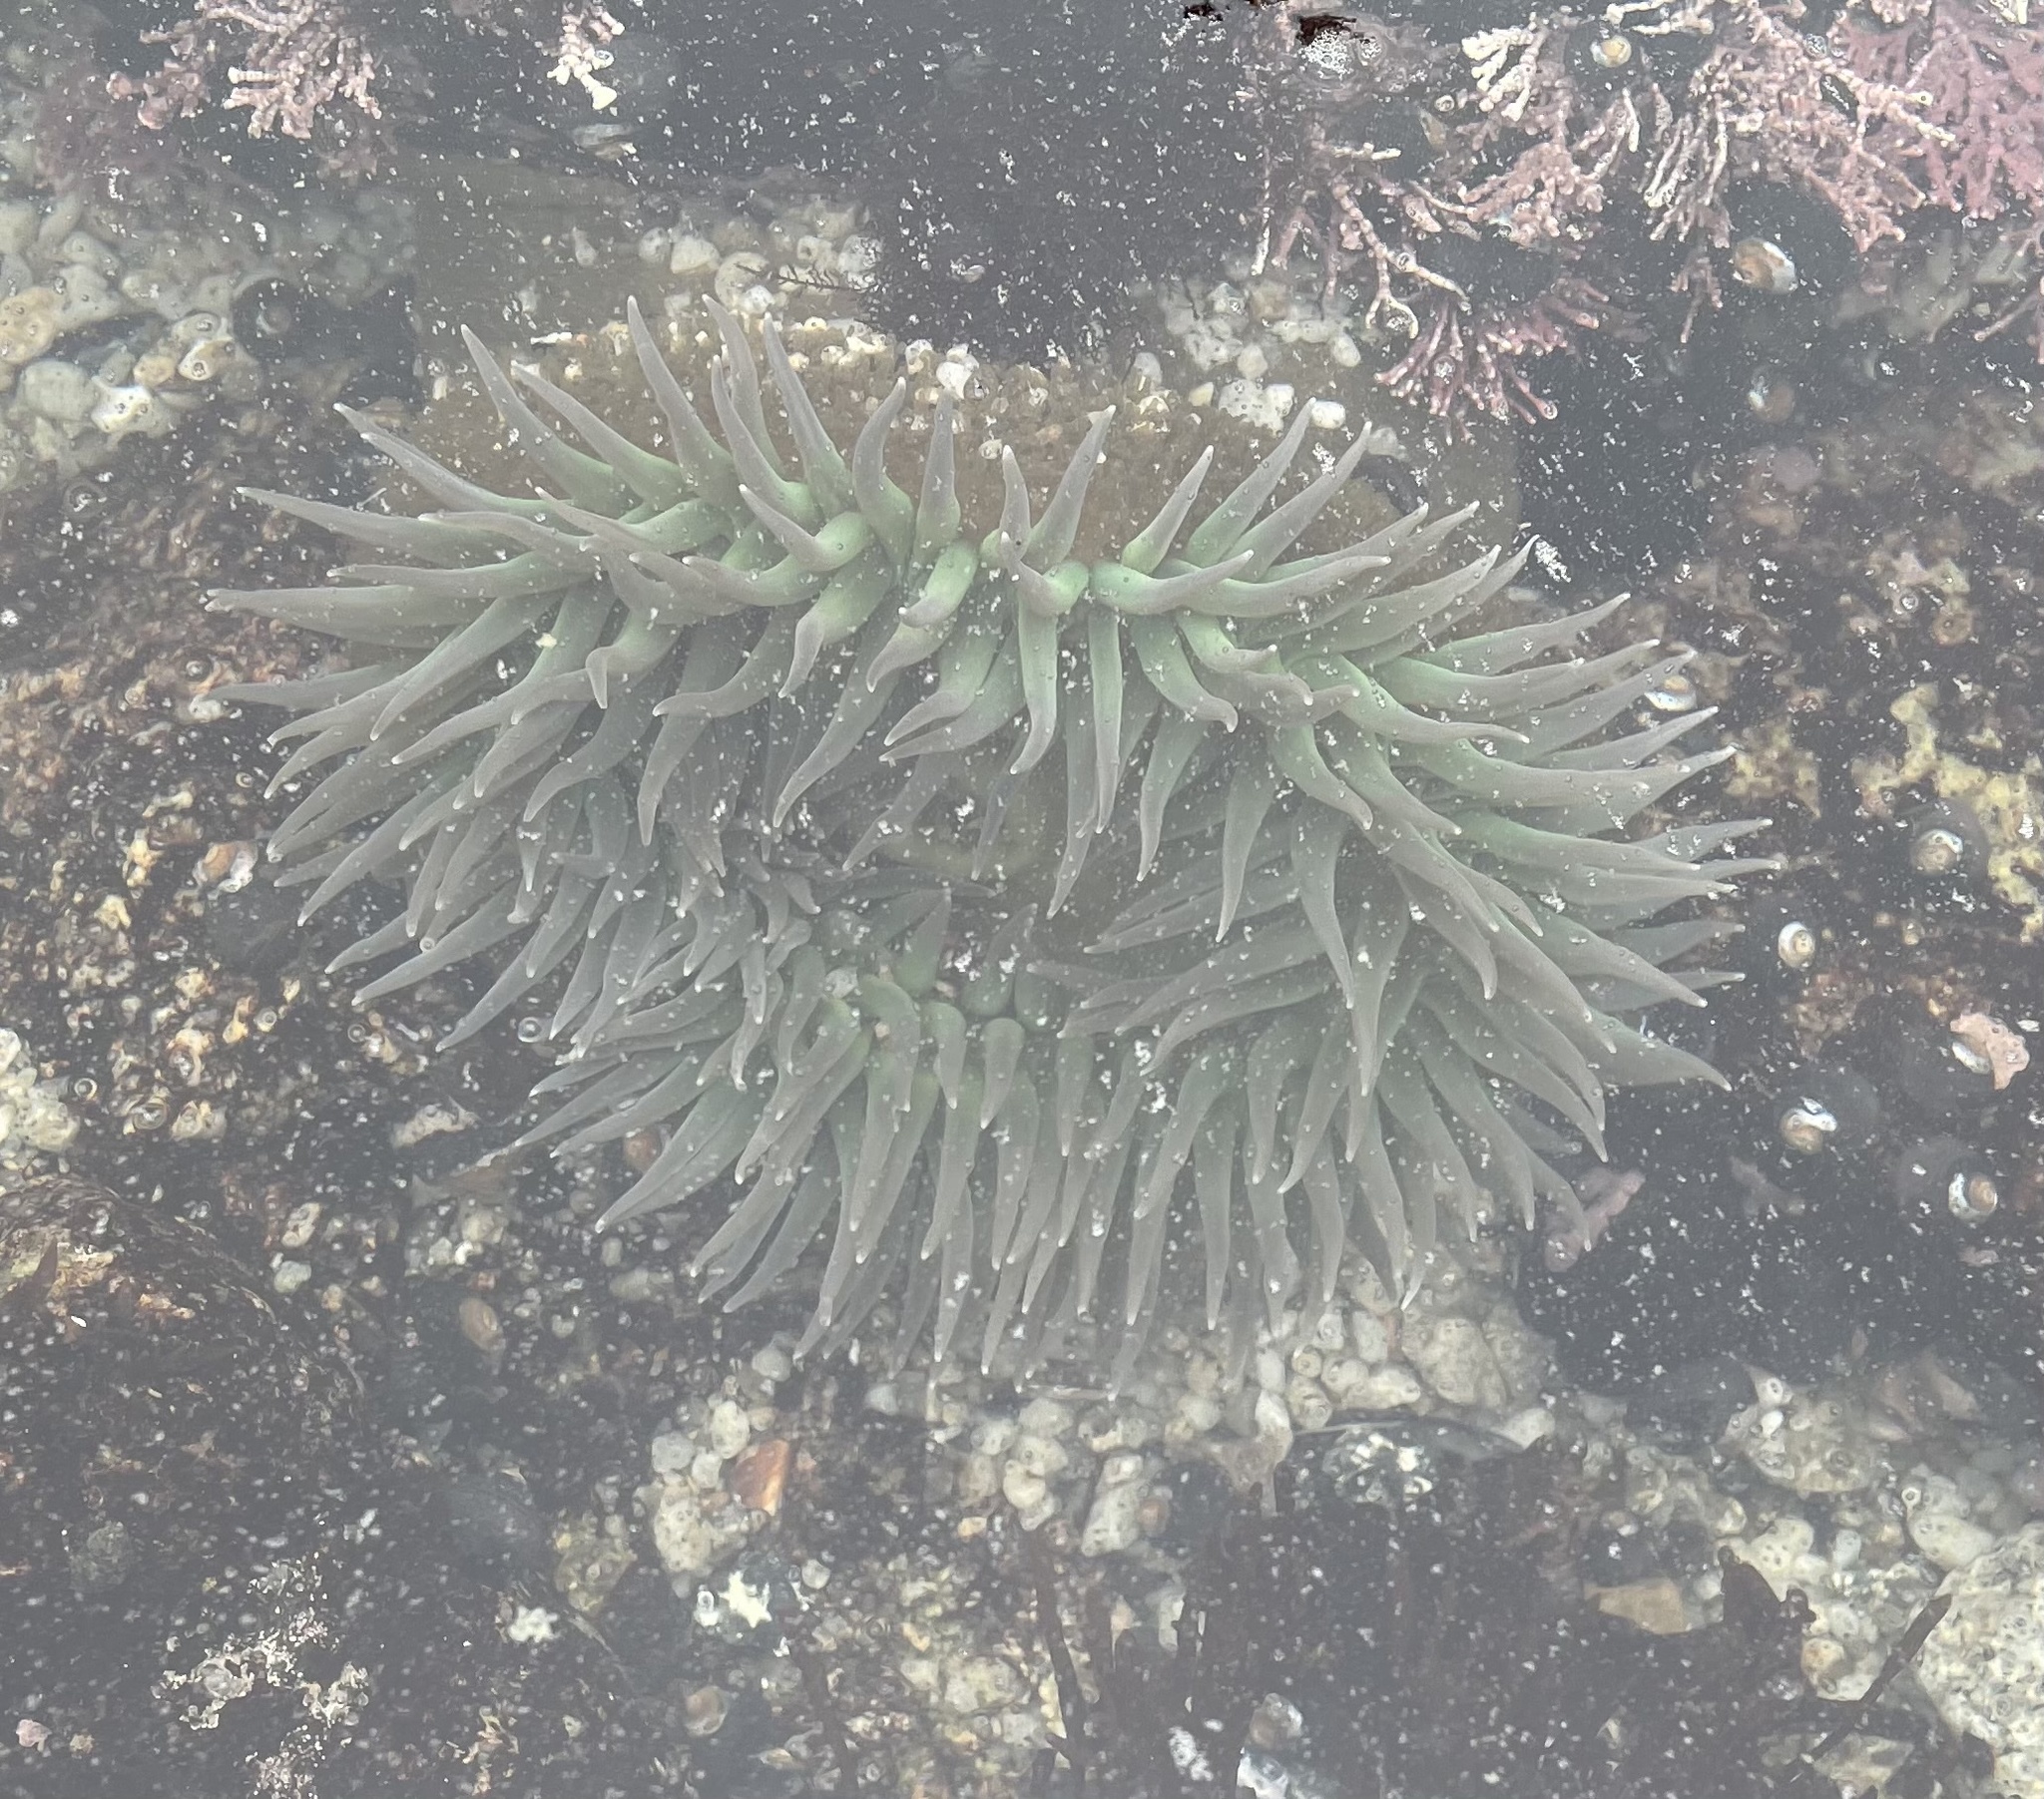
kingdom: Animalia
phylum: Cnidaria
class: Anthozoa
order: Actiniaria
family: Actiniidae
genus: Anthopleura
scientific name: Anthopleura xanthogrammica
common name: Giant green anemone
